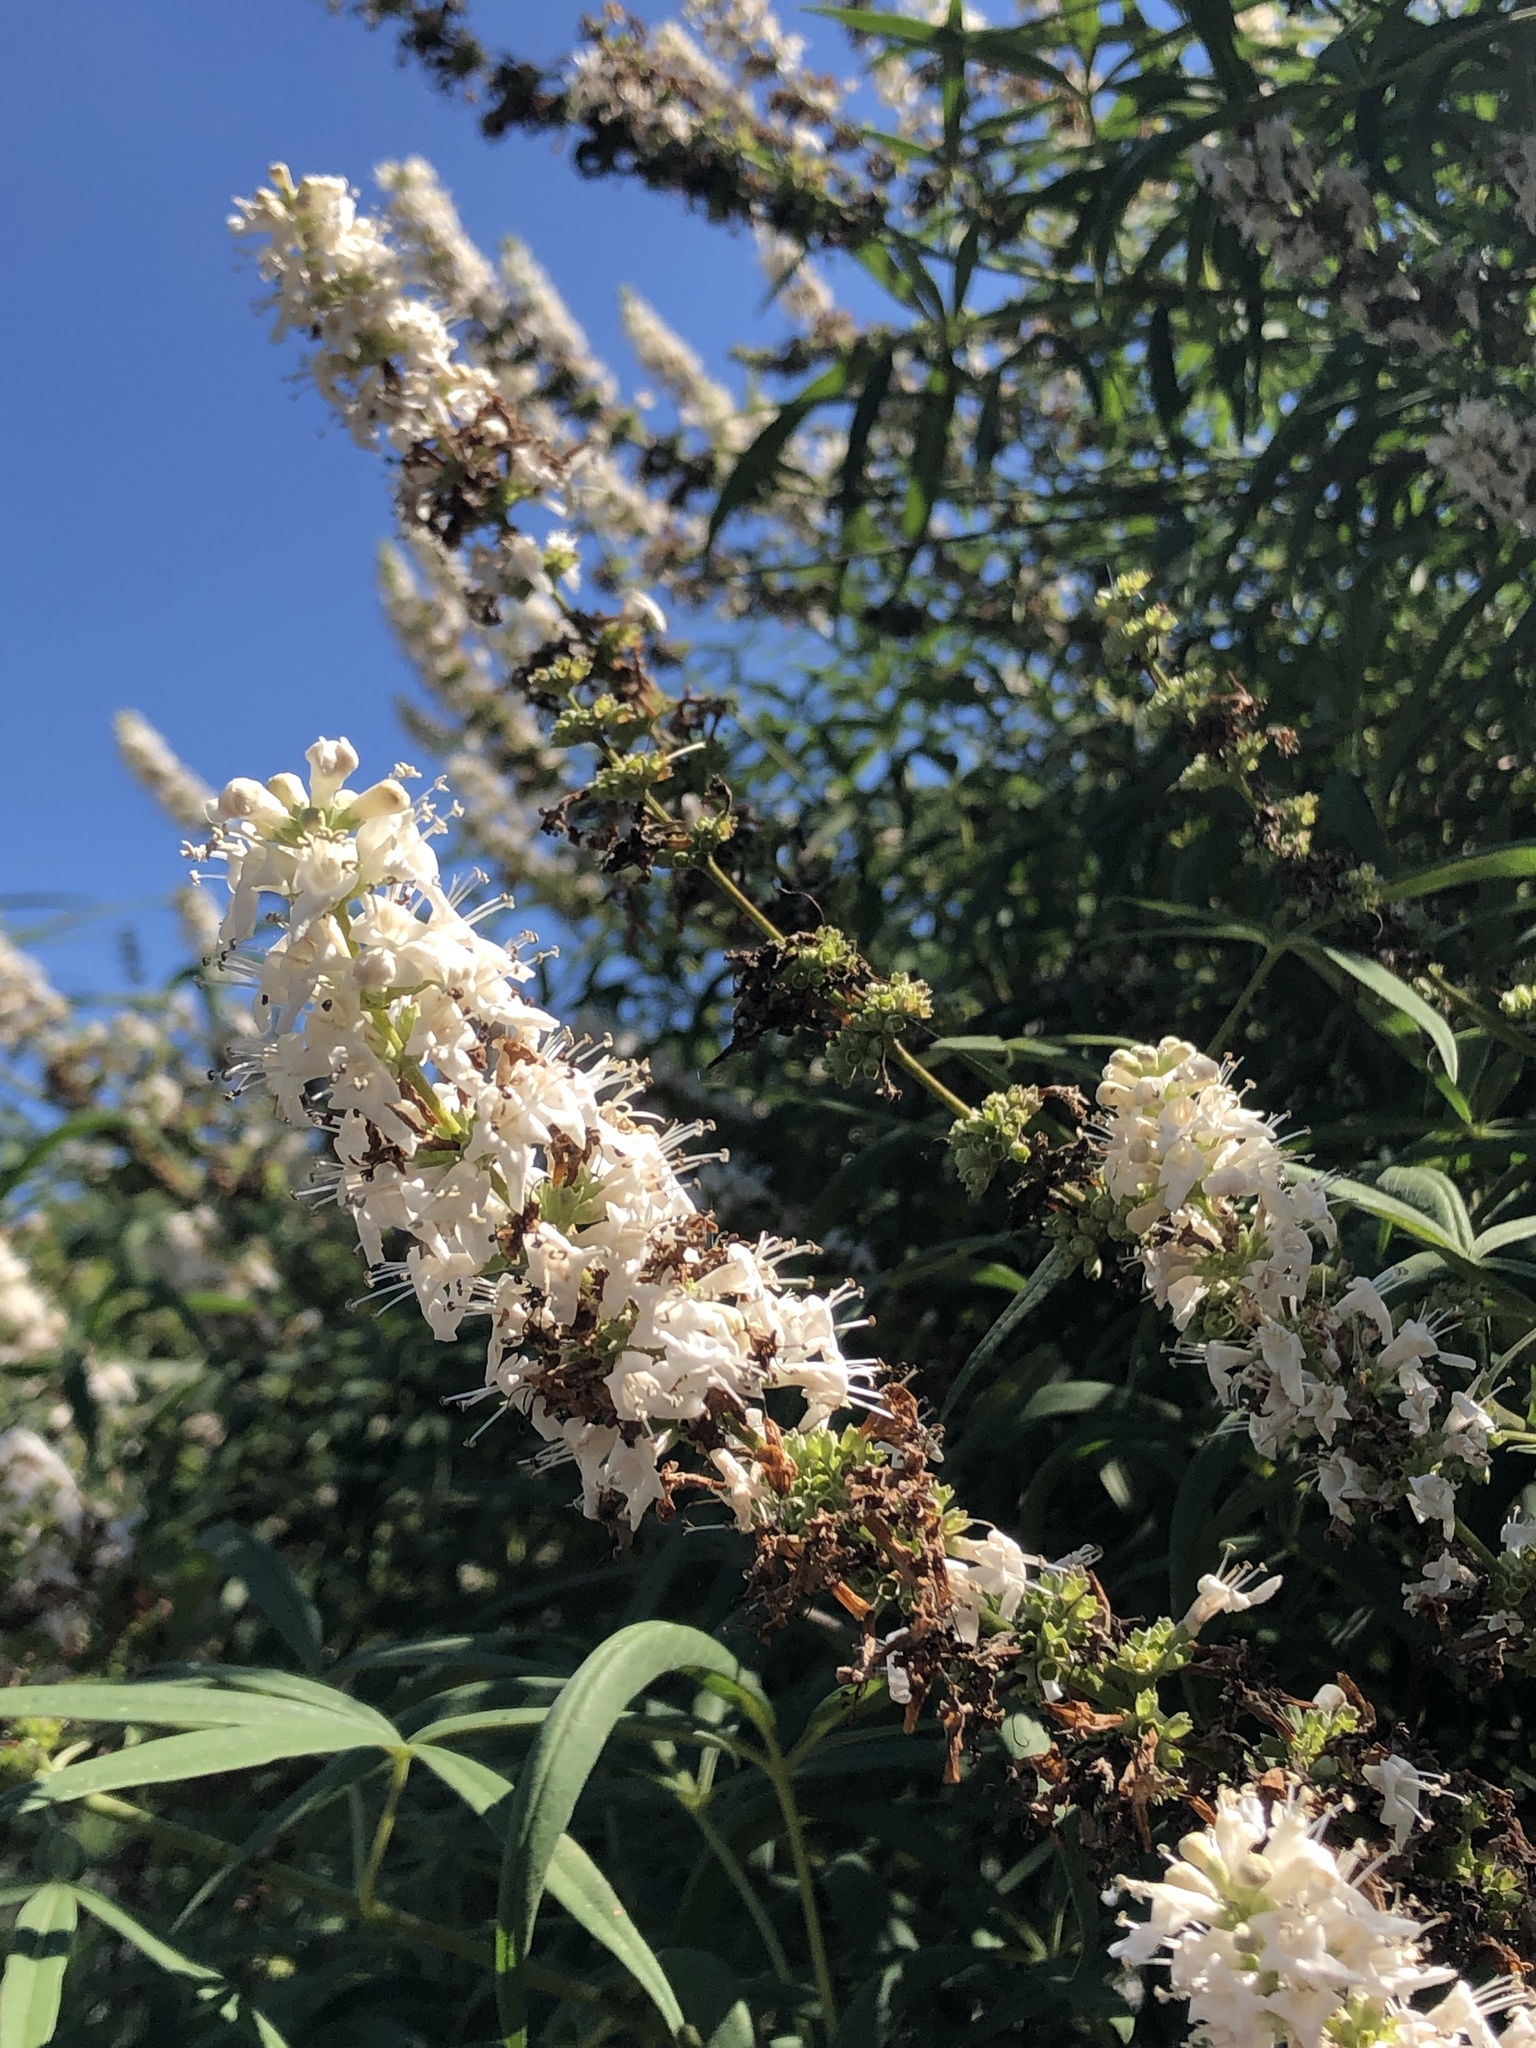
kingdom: Plantae
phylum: Tracheophyta
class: Magnoliopsida
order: Lamiales
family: Lamiaceae
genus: Vitex
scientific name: Vitex agnus-castus
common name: Chasteberry
